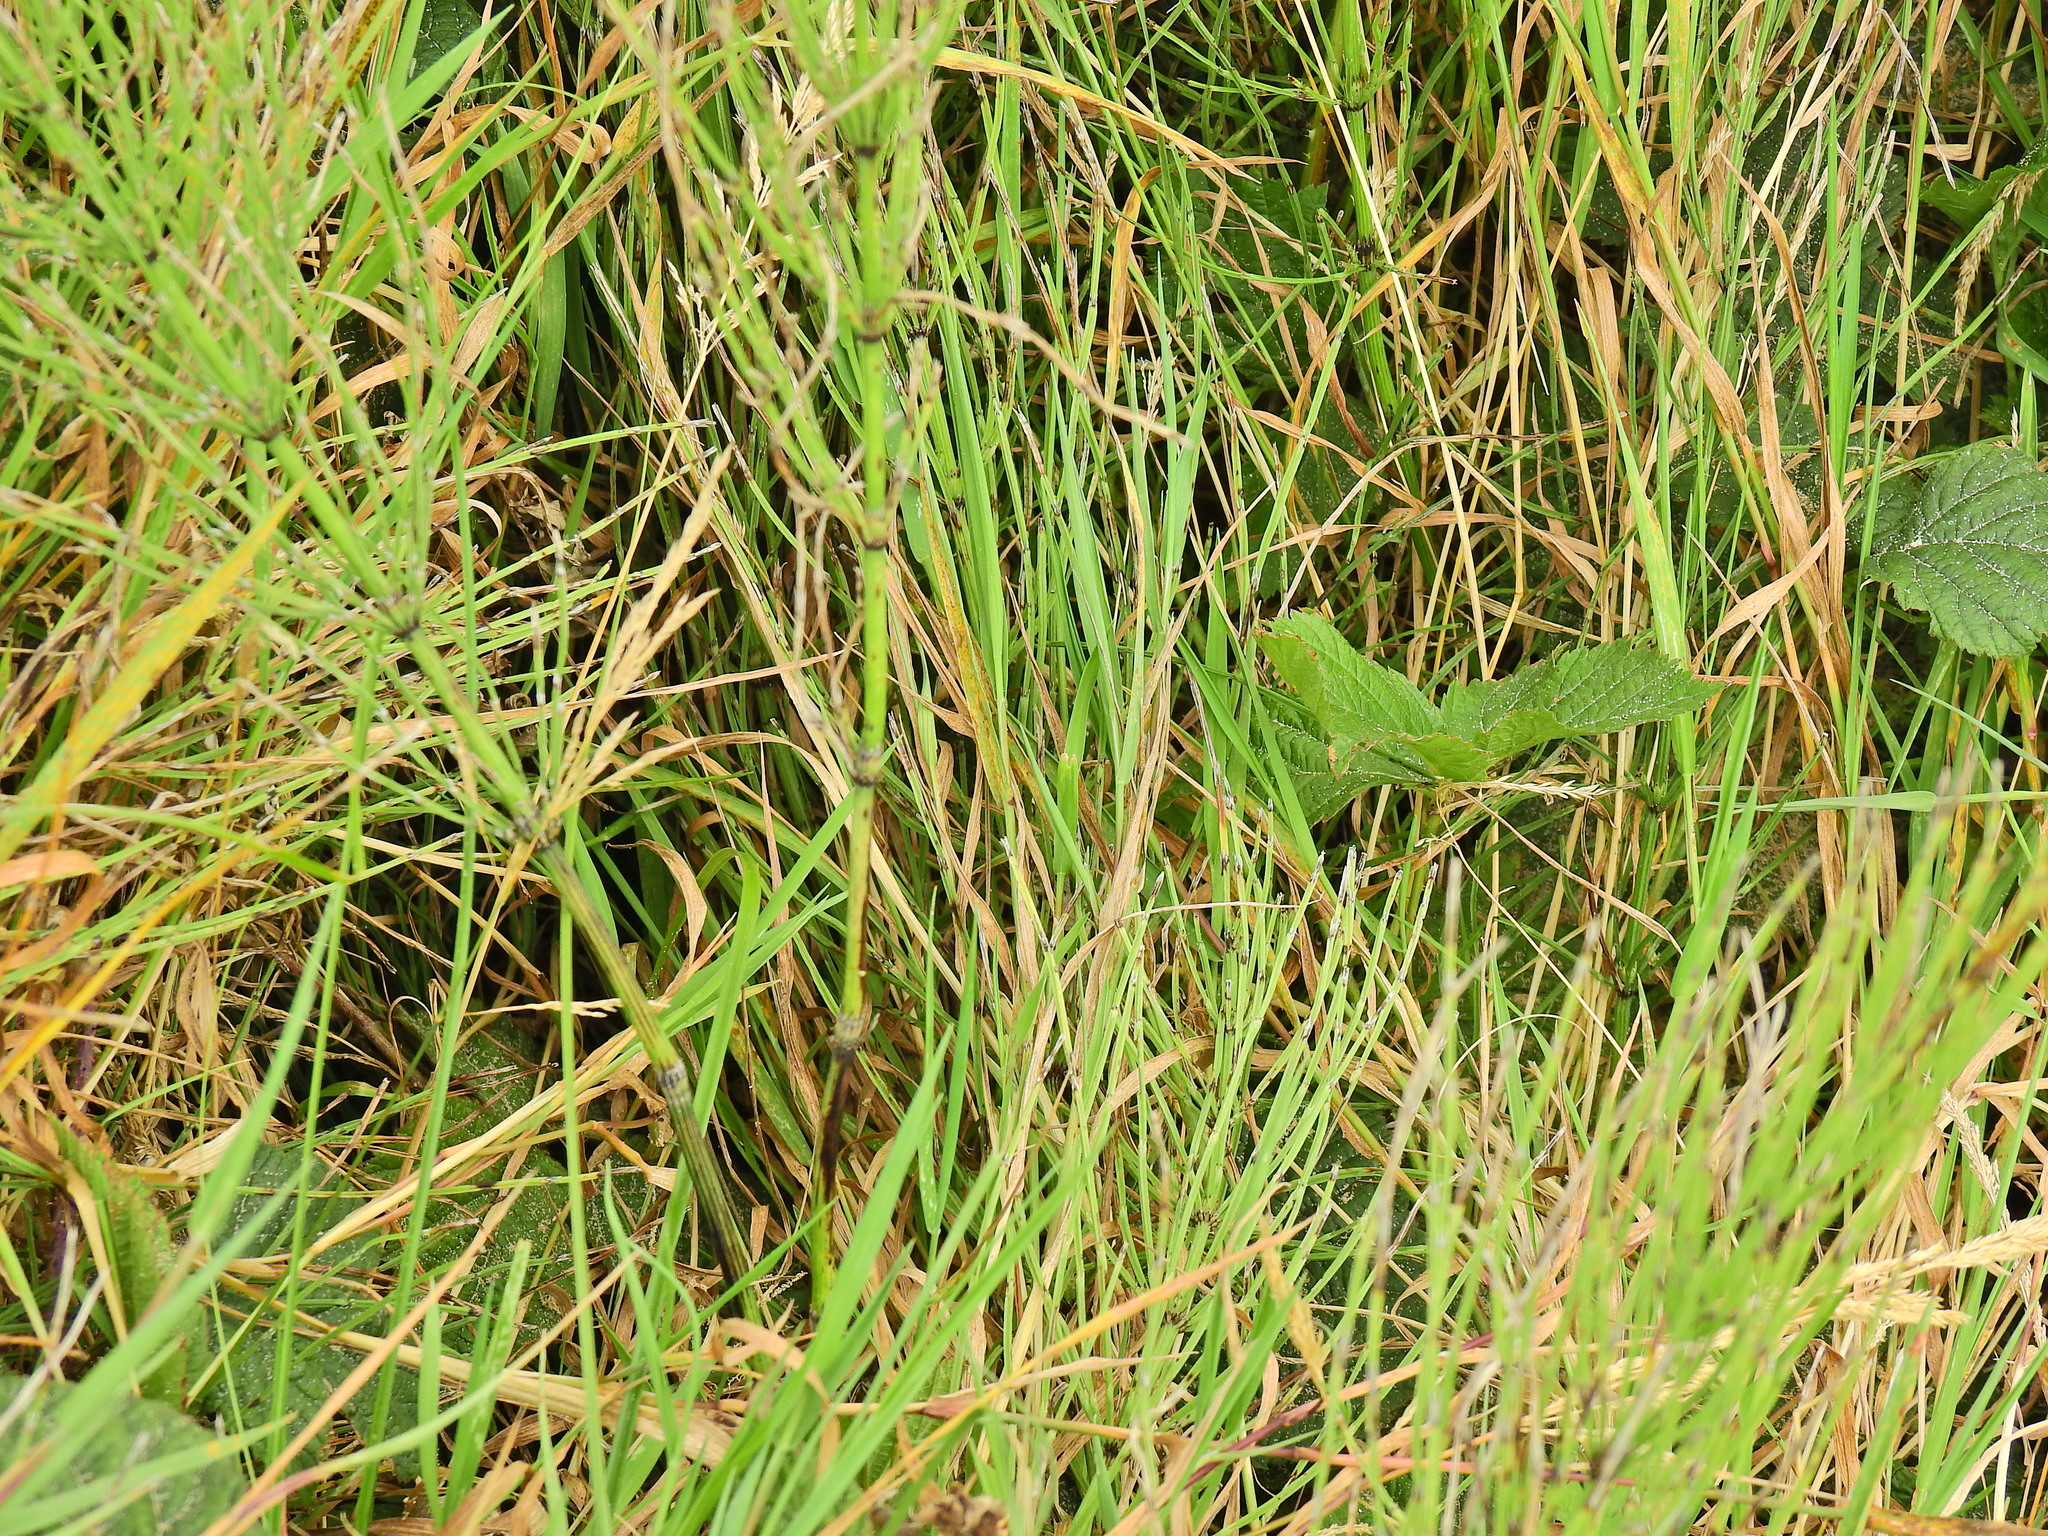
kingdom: Plantae
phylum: Tracheophyta
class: Polypodiopsida
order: Equisetales
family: Equisetaceae
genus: Equisetum
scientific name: Equisetum arvense
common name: Field horsetail
